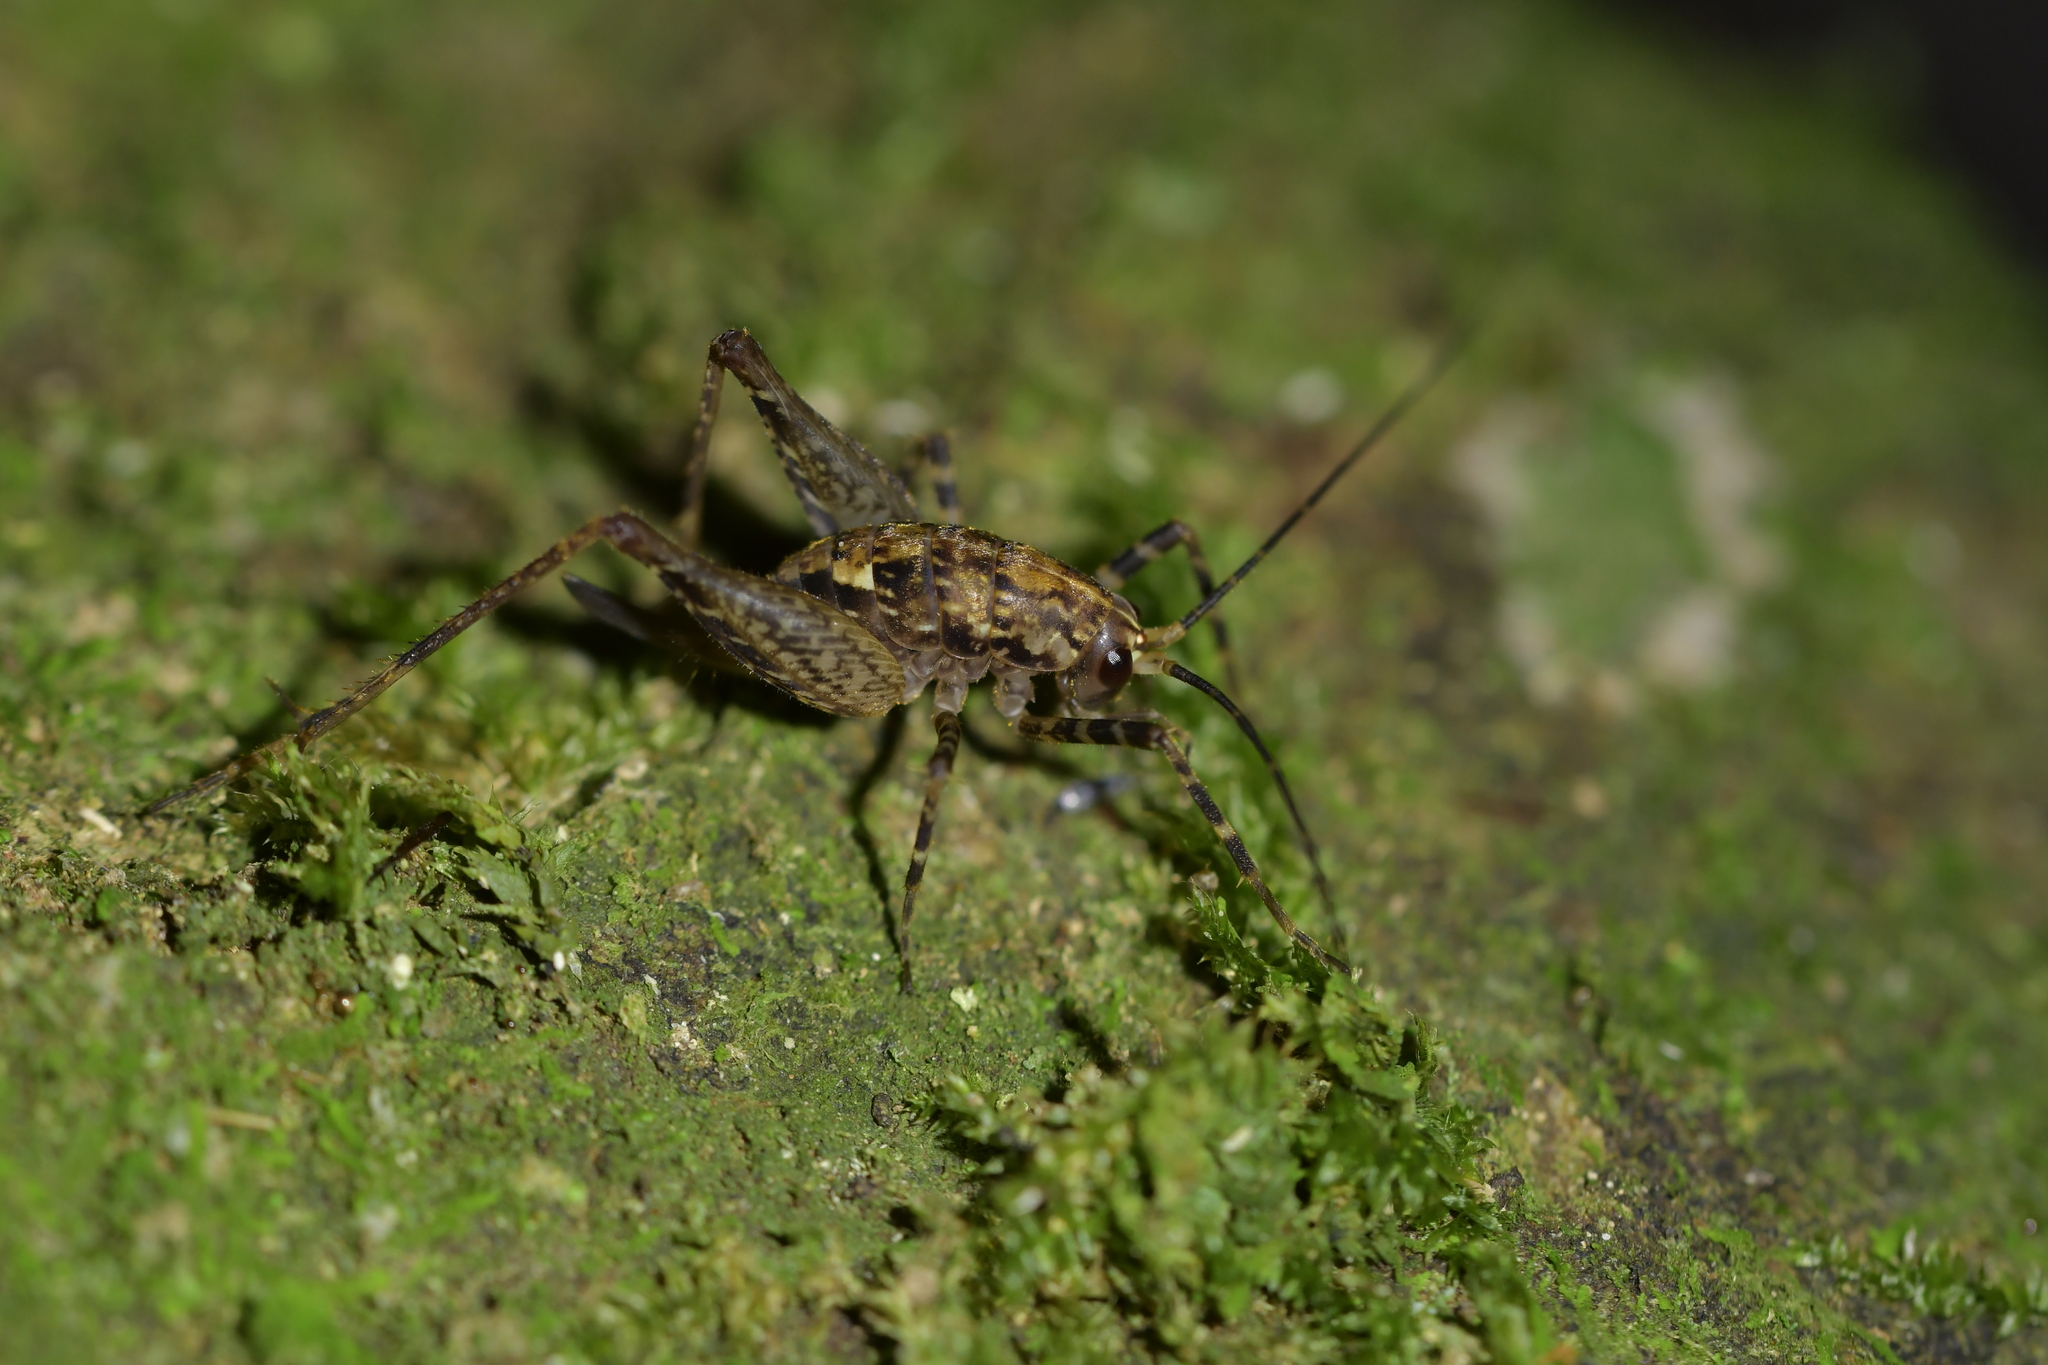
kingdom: Animalia
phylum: Arthropoda
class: Insecta
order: Orthoptera
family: Rhaphidophoridae
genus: Pleioplectron
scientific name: Pleioplectron hudsoni
